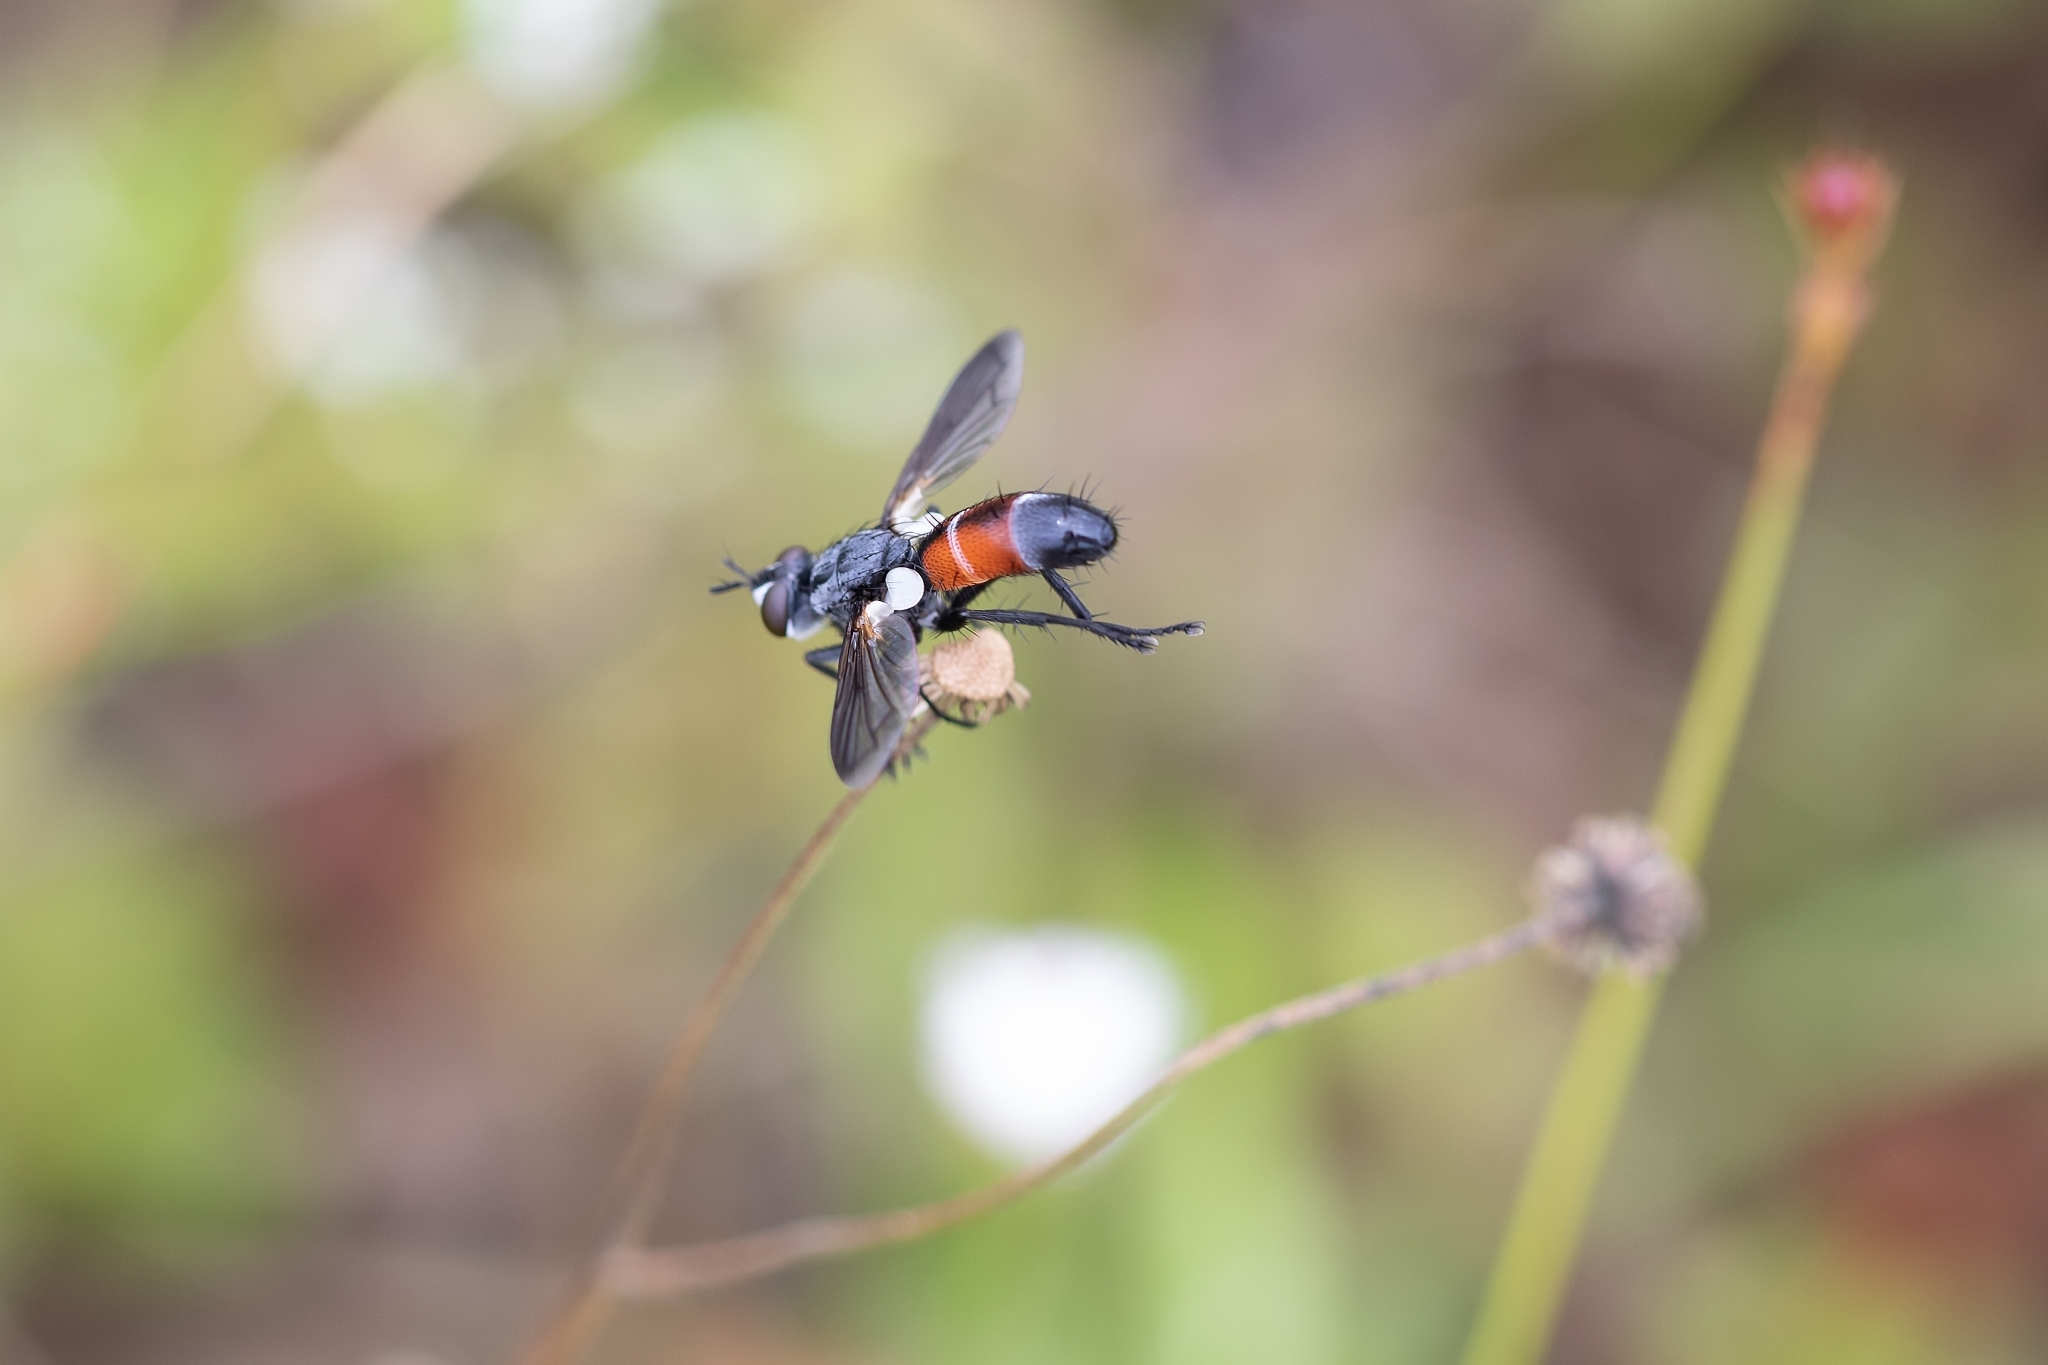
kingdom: Animalia
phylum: Arthropoda
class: Insecta
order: Diptera
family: Tachinidae
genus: Cylindromyia
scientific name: Cylindromyia
